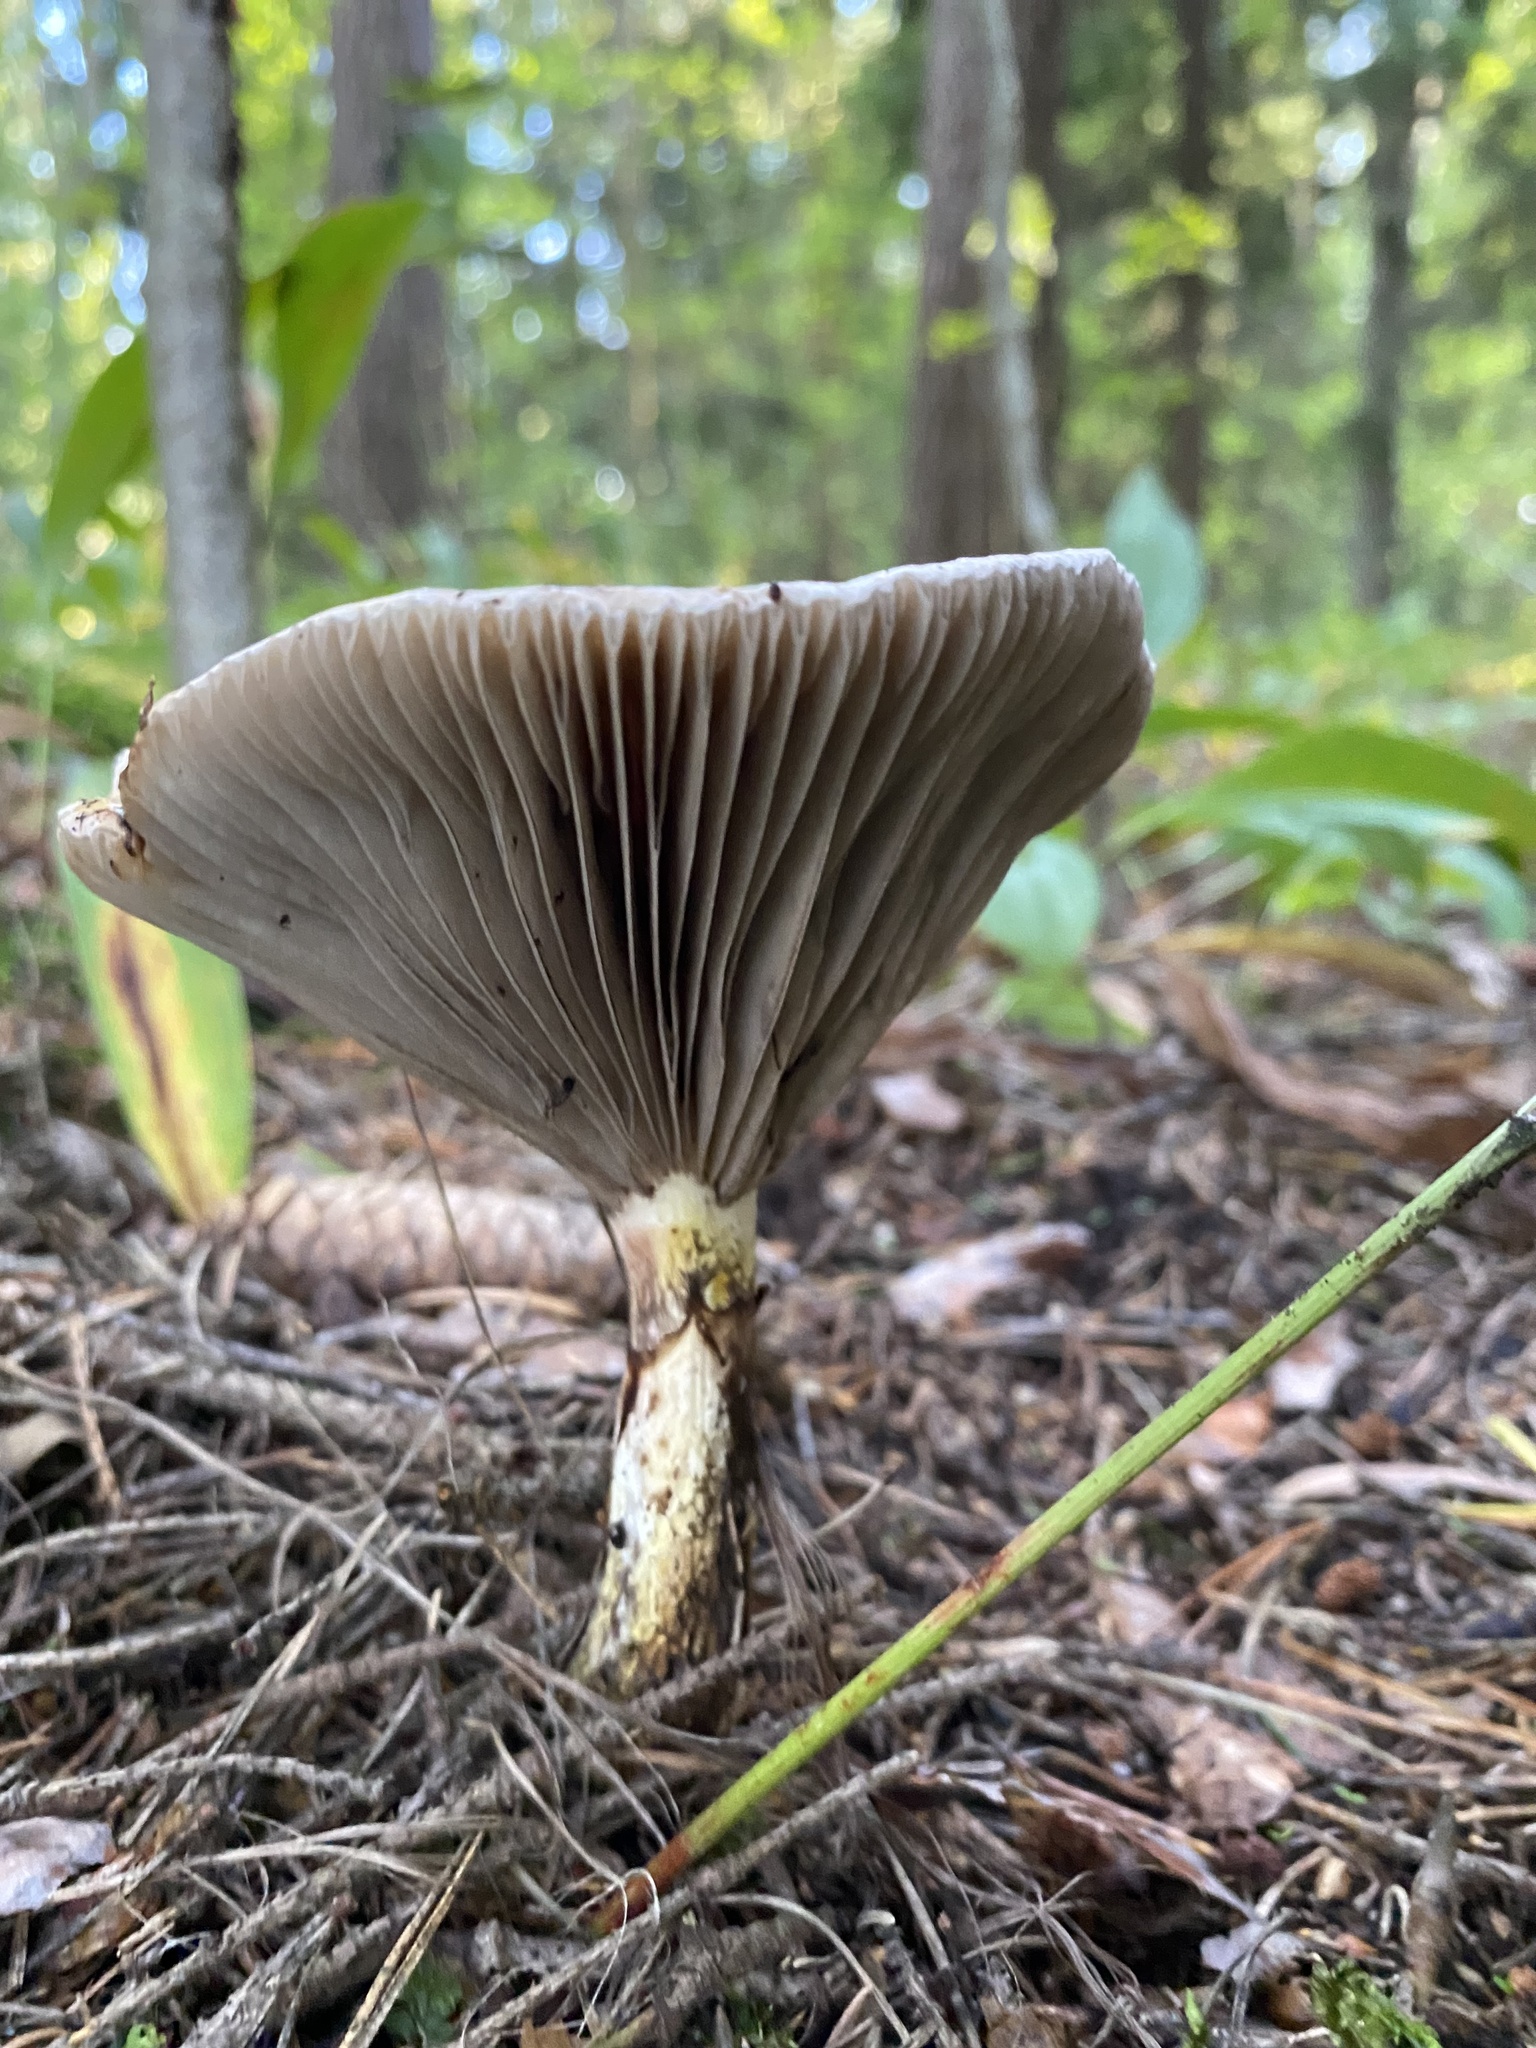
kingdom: Fungi
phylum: Basidiomycota
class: Agaricomycetes
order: Boletales
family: Gomphidiaceae
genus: Gomphidius
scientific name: Gomphidius glutinosus
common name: Slimy spike
